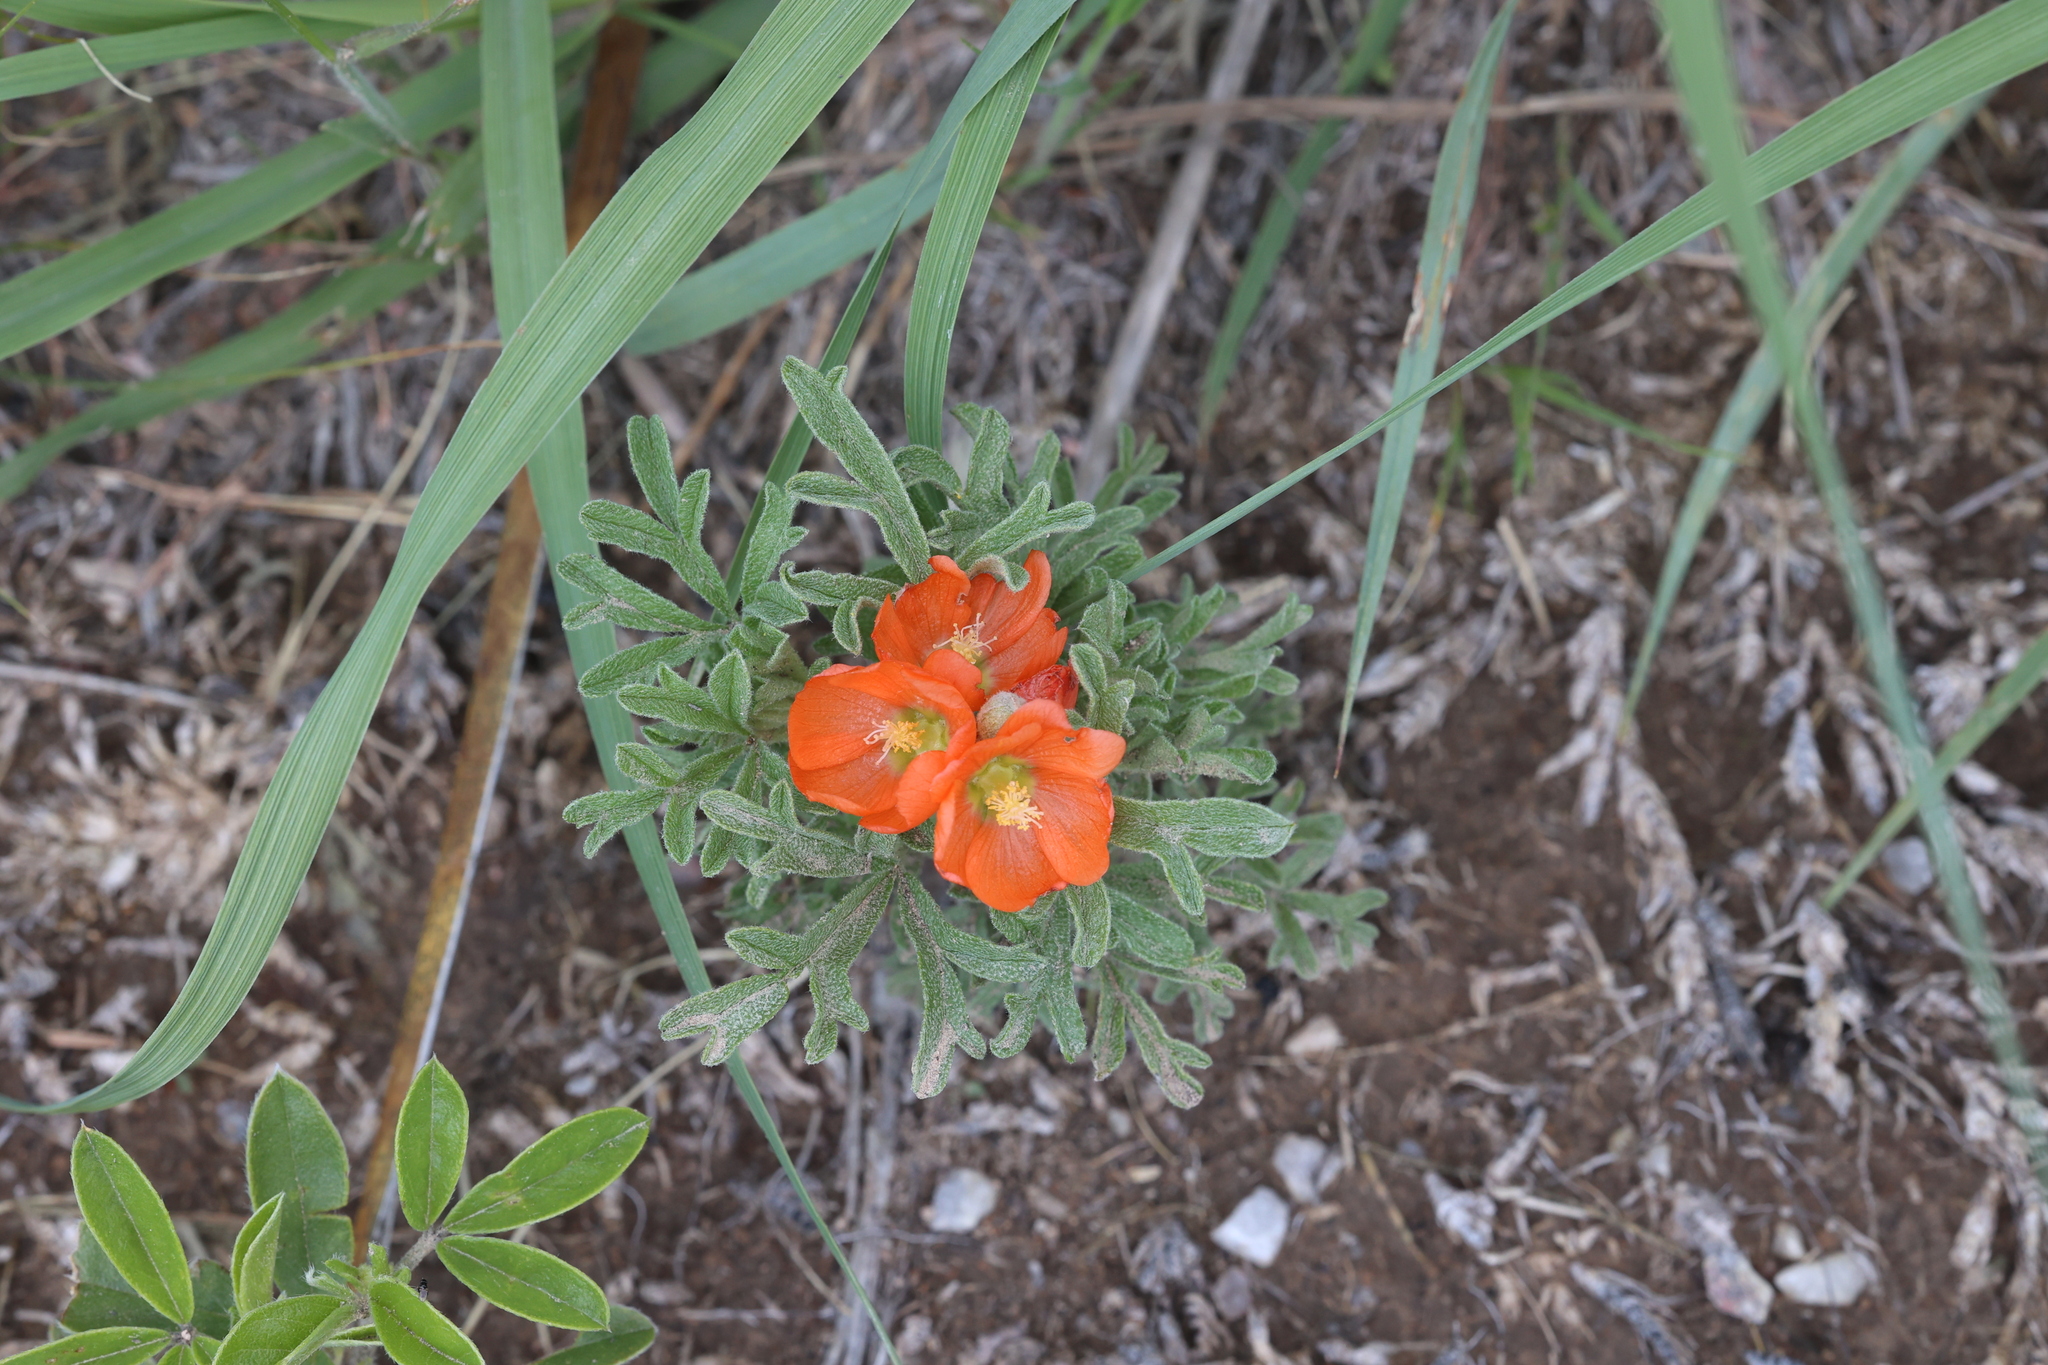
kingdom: Plantae
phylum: Tracheophyta
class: Magnoliopsida
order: Malvales
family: Malvaceae
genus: Sphaeralcea
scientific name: Sphaeralcea coccinea
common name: Moss-rose
